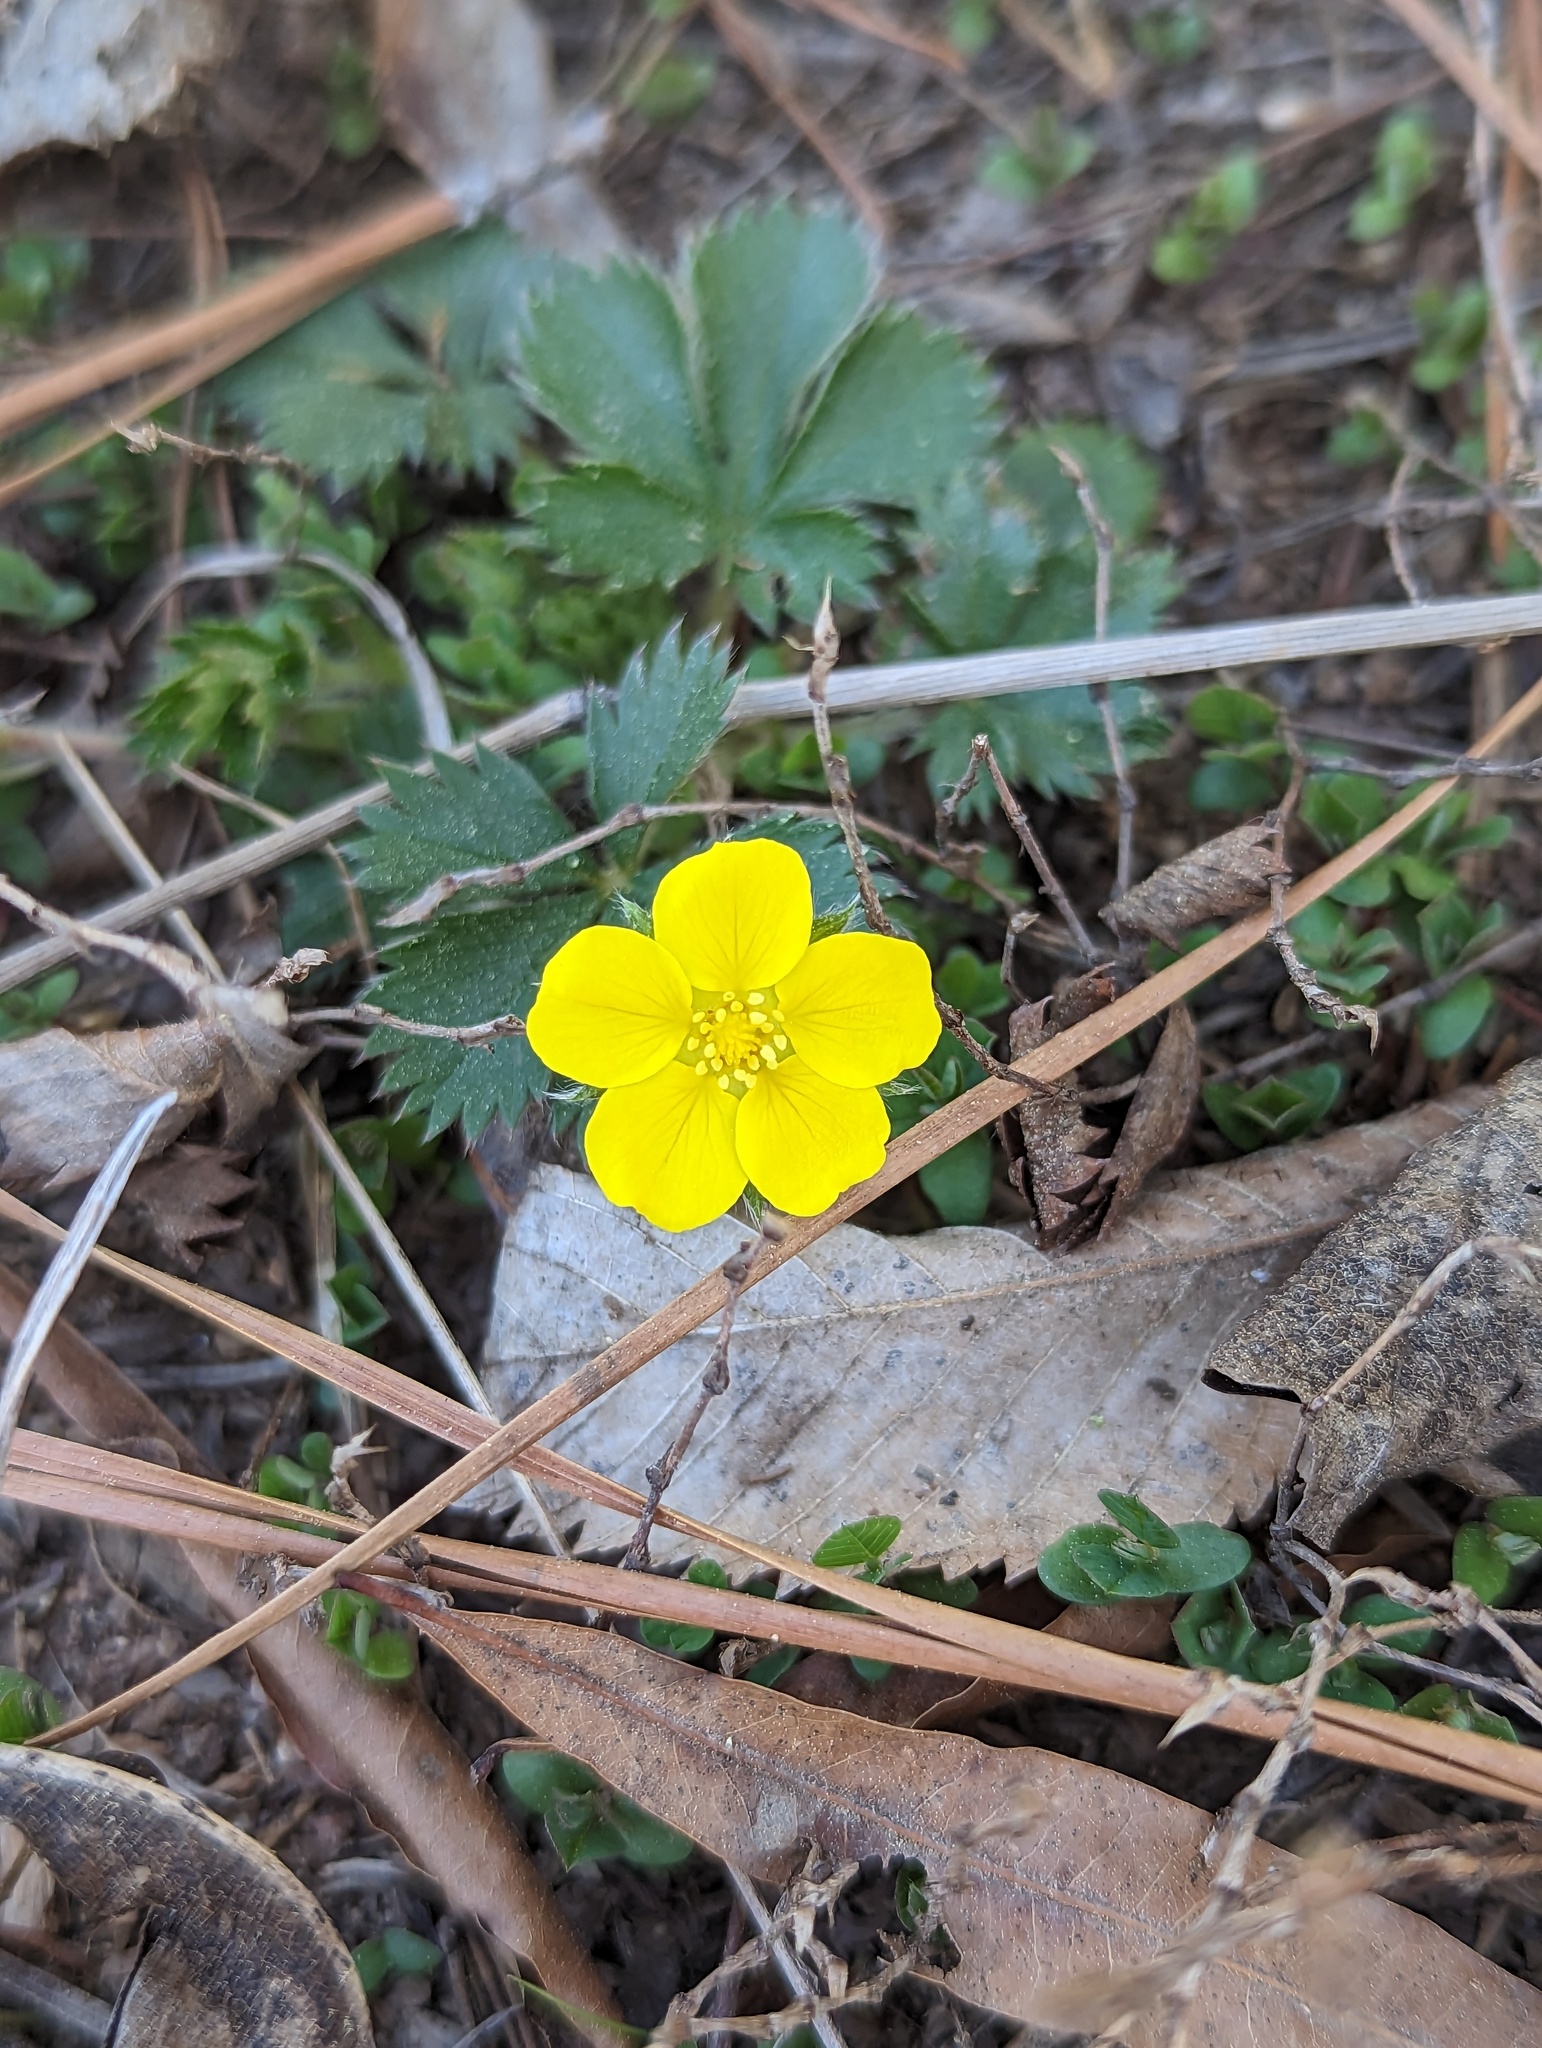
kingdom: Plantae
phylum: Tracheophyta
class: Magnoliopsida
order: Rosales
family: Rosaceae
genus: Potentilla
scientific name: Potentilla canadensis
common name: Canada cinquefoil
